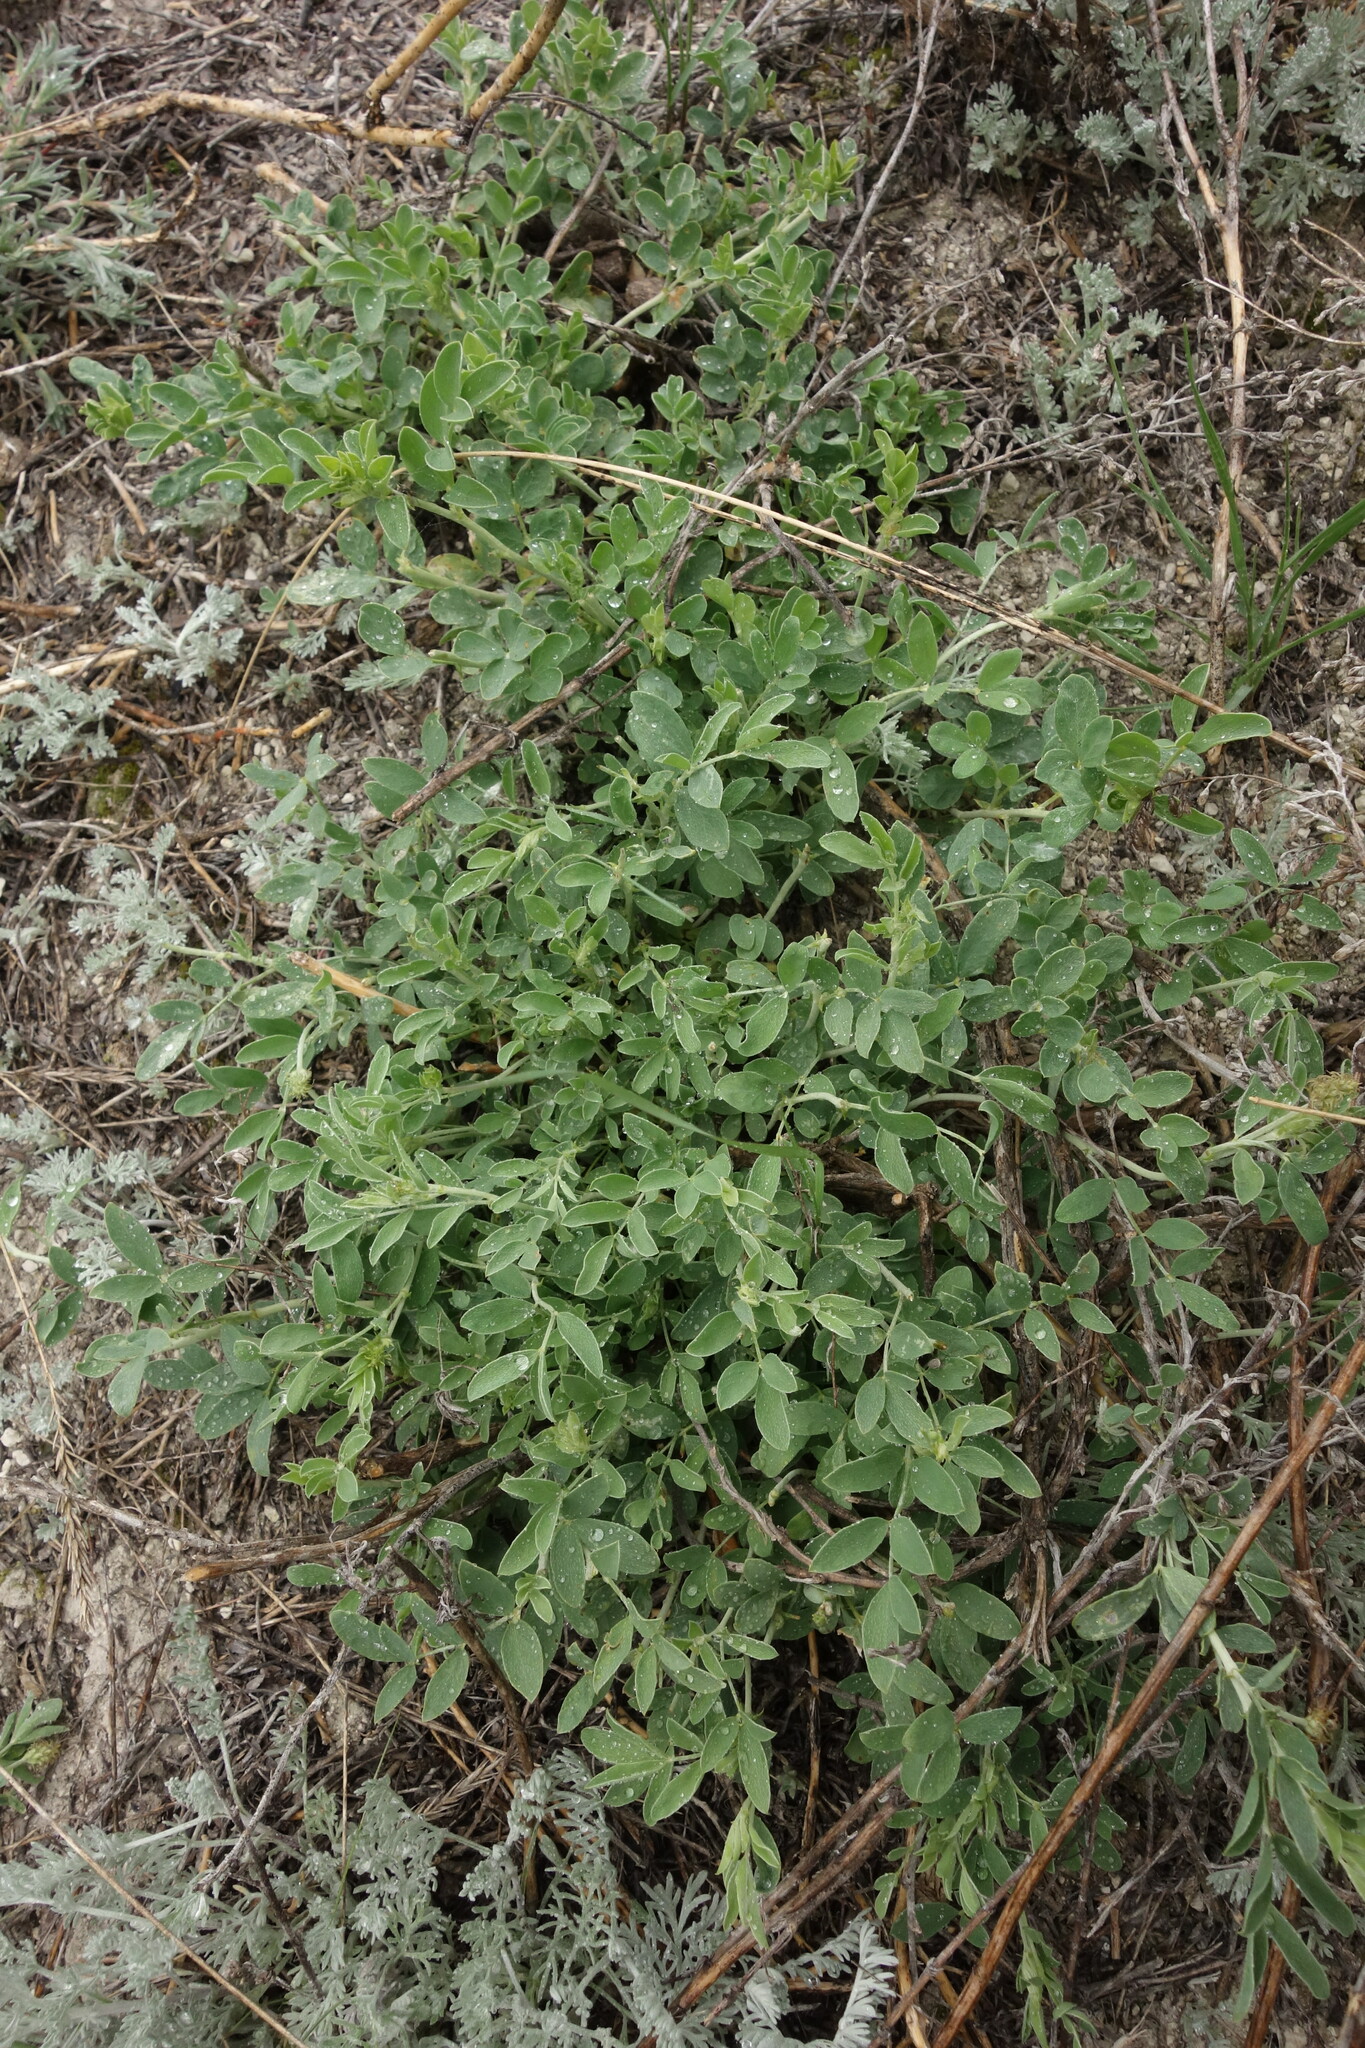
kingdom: Plantae
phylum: Tracheophyta
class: Magnoliopsida
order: Fabales
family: Fabaceae
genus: Astragalus
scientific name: Astragalus albicaulis
